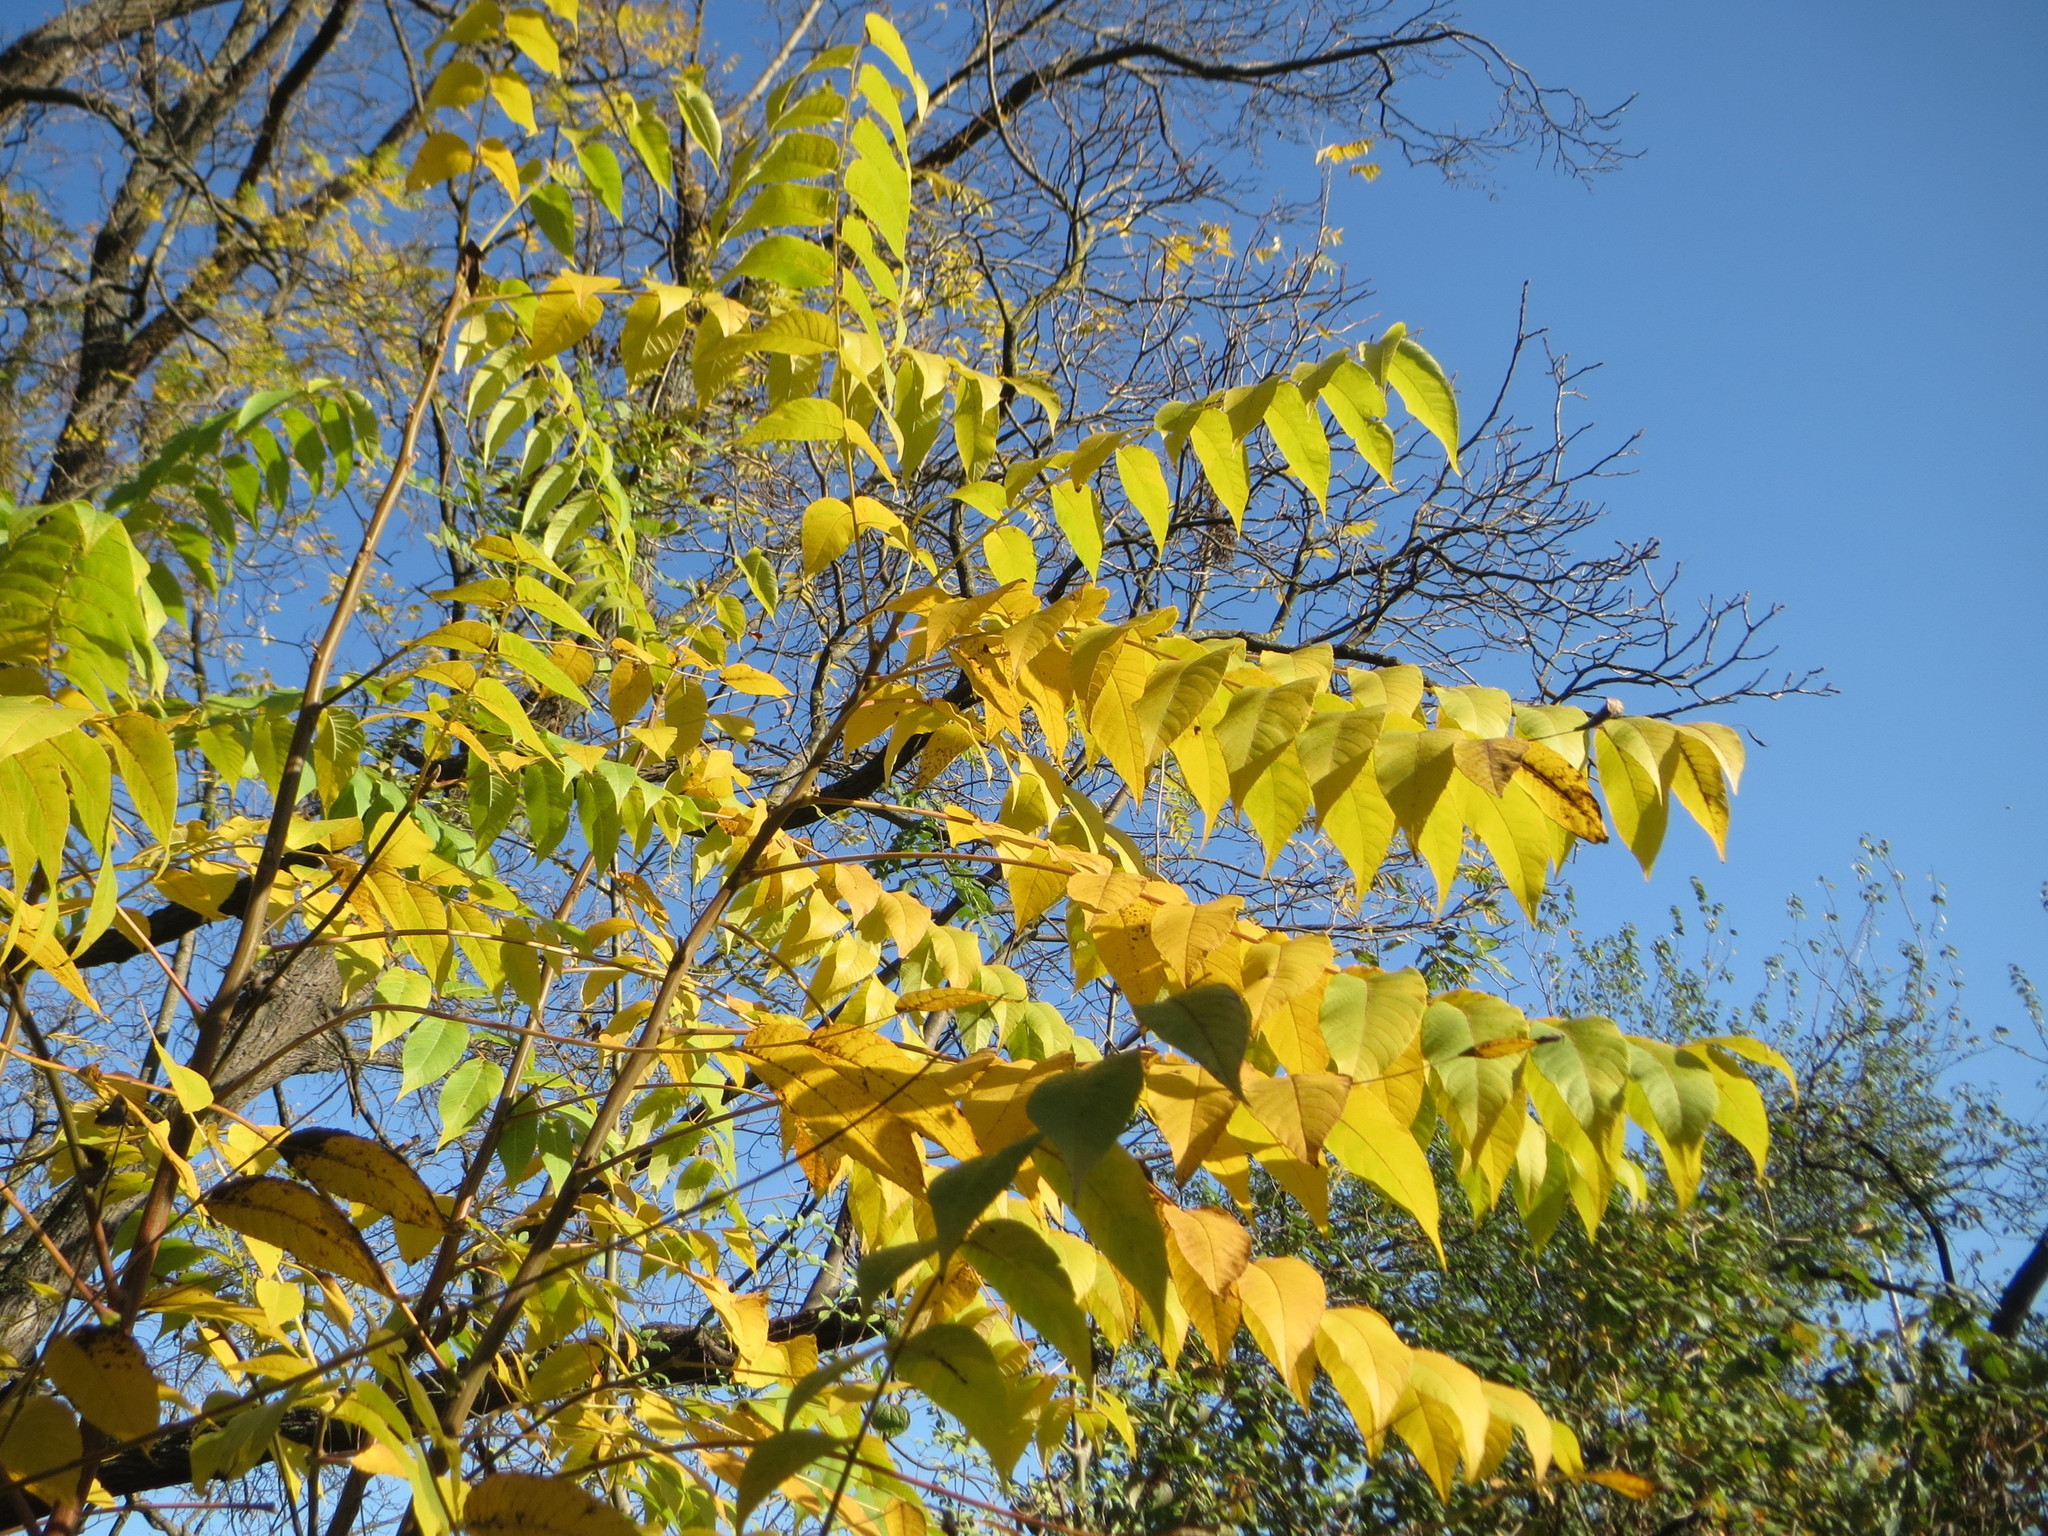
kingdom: Plantae
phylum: Tracheophyta
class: Magnoliopsida
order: Sapindales
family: Simaroubaceae
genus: Ailanthus
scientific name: Ailanthus altissima
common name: Tree-of-heaven
